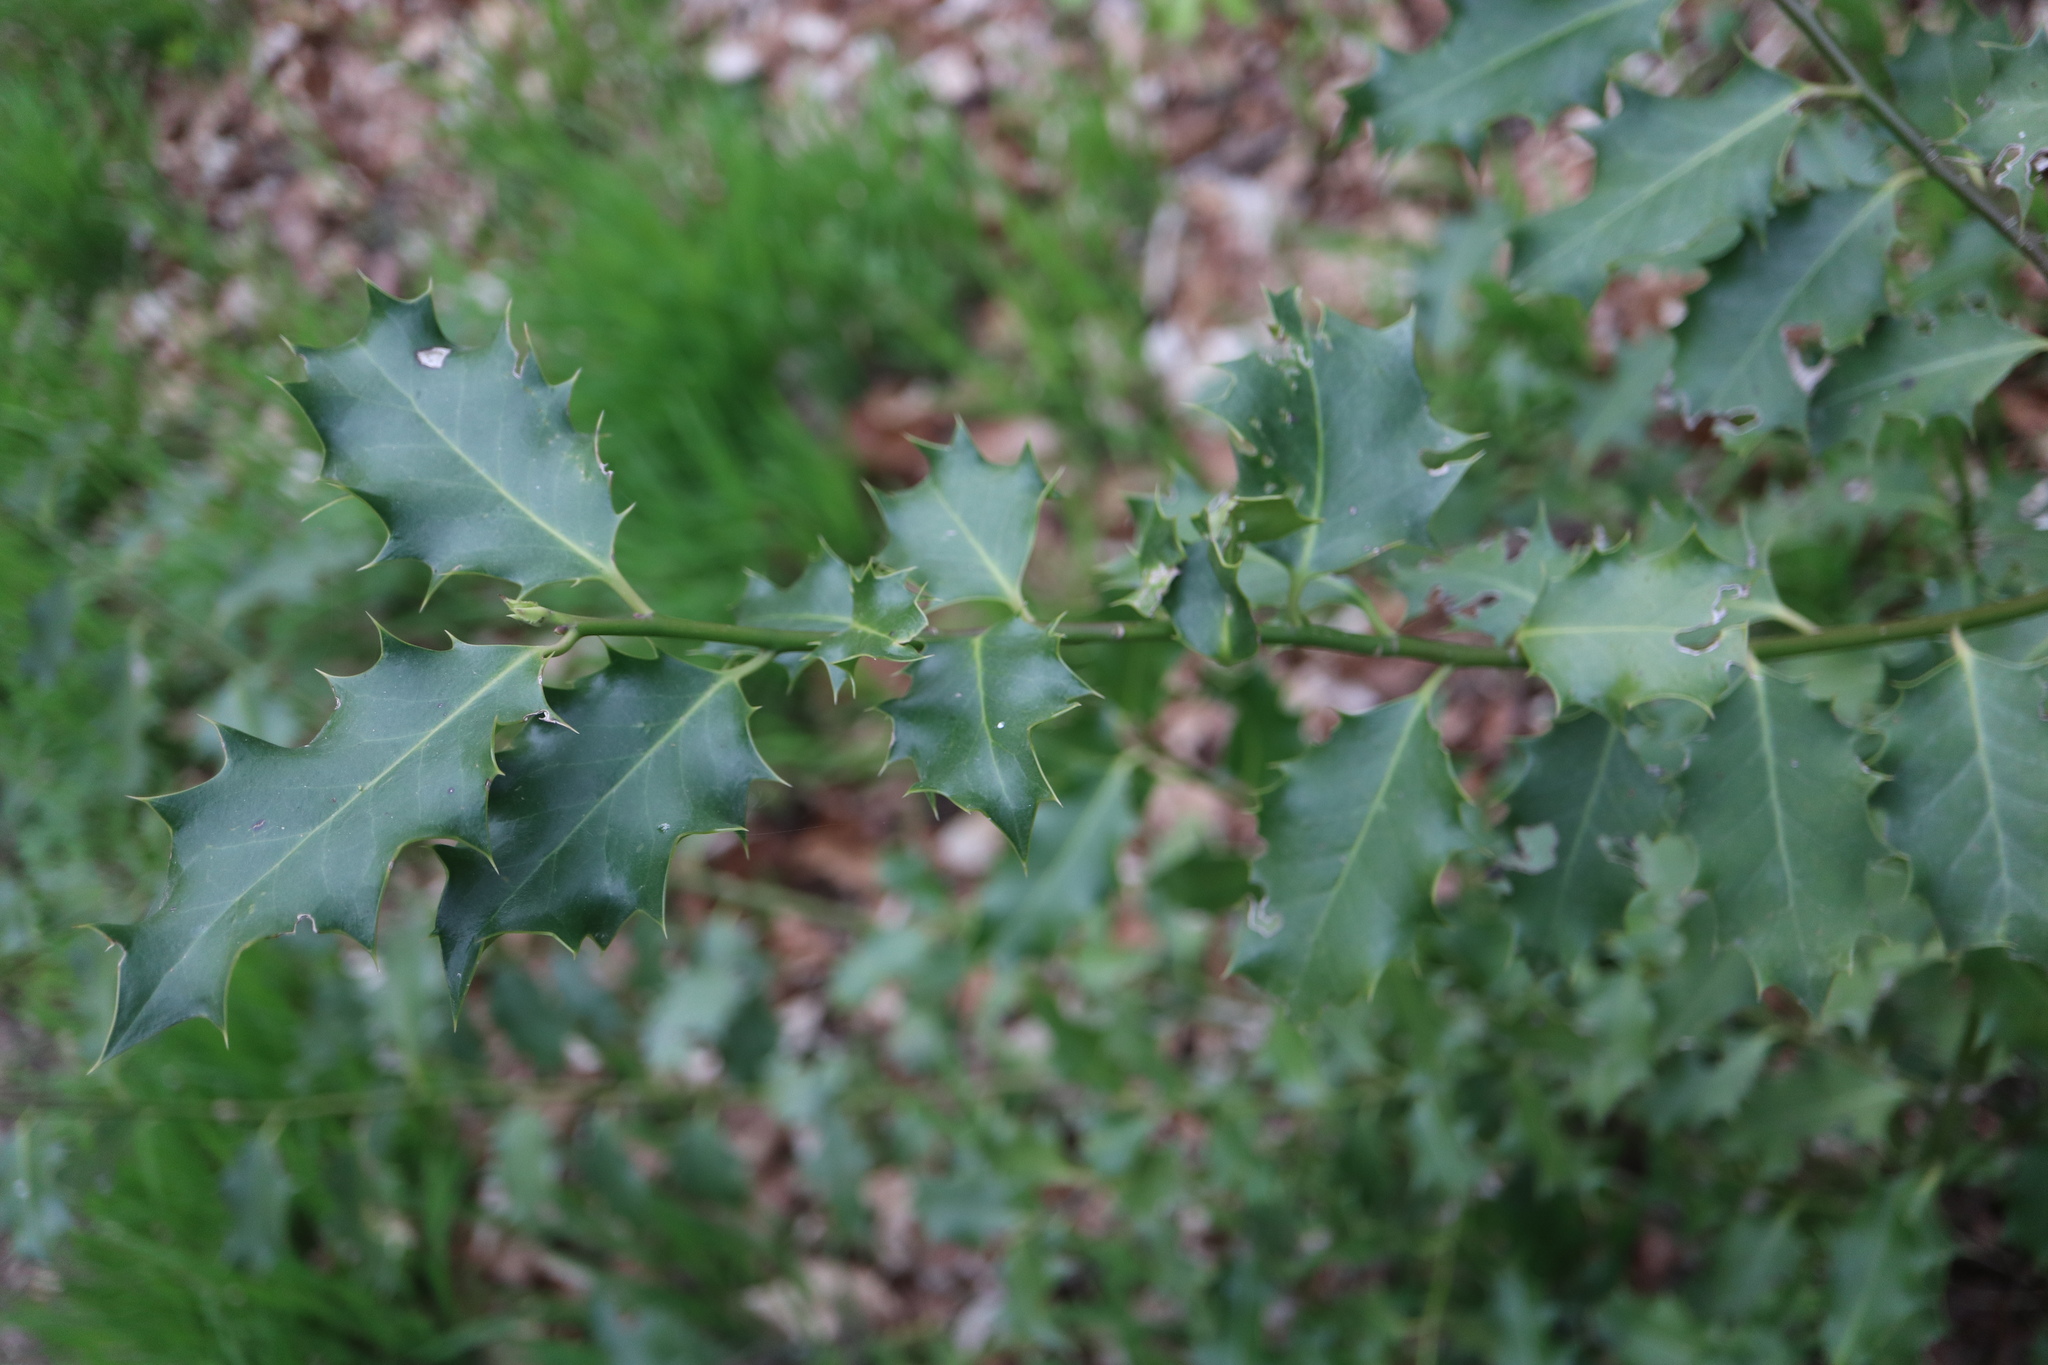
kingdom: Plantae
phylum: Tracheophyta
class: Magnoliopsida
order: Aquifoliales
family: Aquifoliaceae
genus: Ilex
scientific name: Ilex aquifolium
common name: English holly
